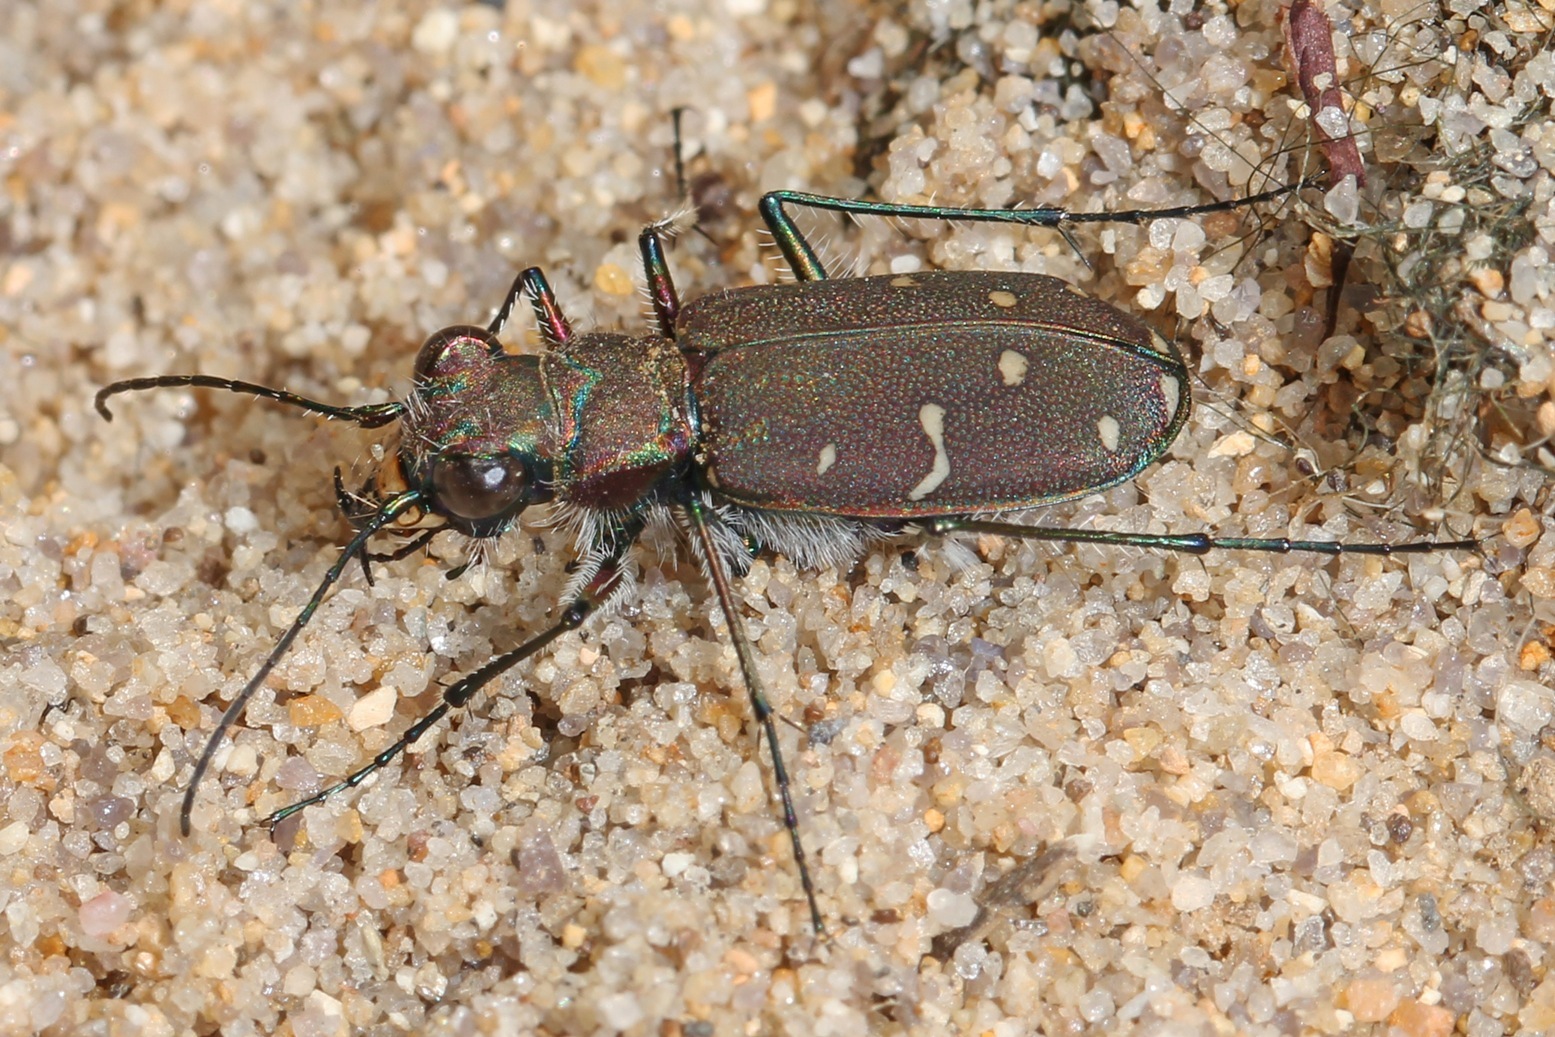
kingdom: Animalia
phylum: Arthropoda
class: Insecta
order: Coleoptera
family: Carabidae
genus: Cicindela
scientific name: Cicindela duodecimguttata
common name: Twelve-spotted tiger beetle
